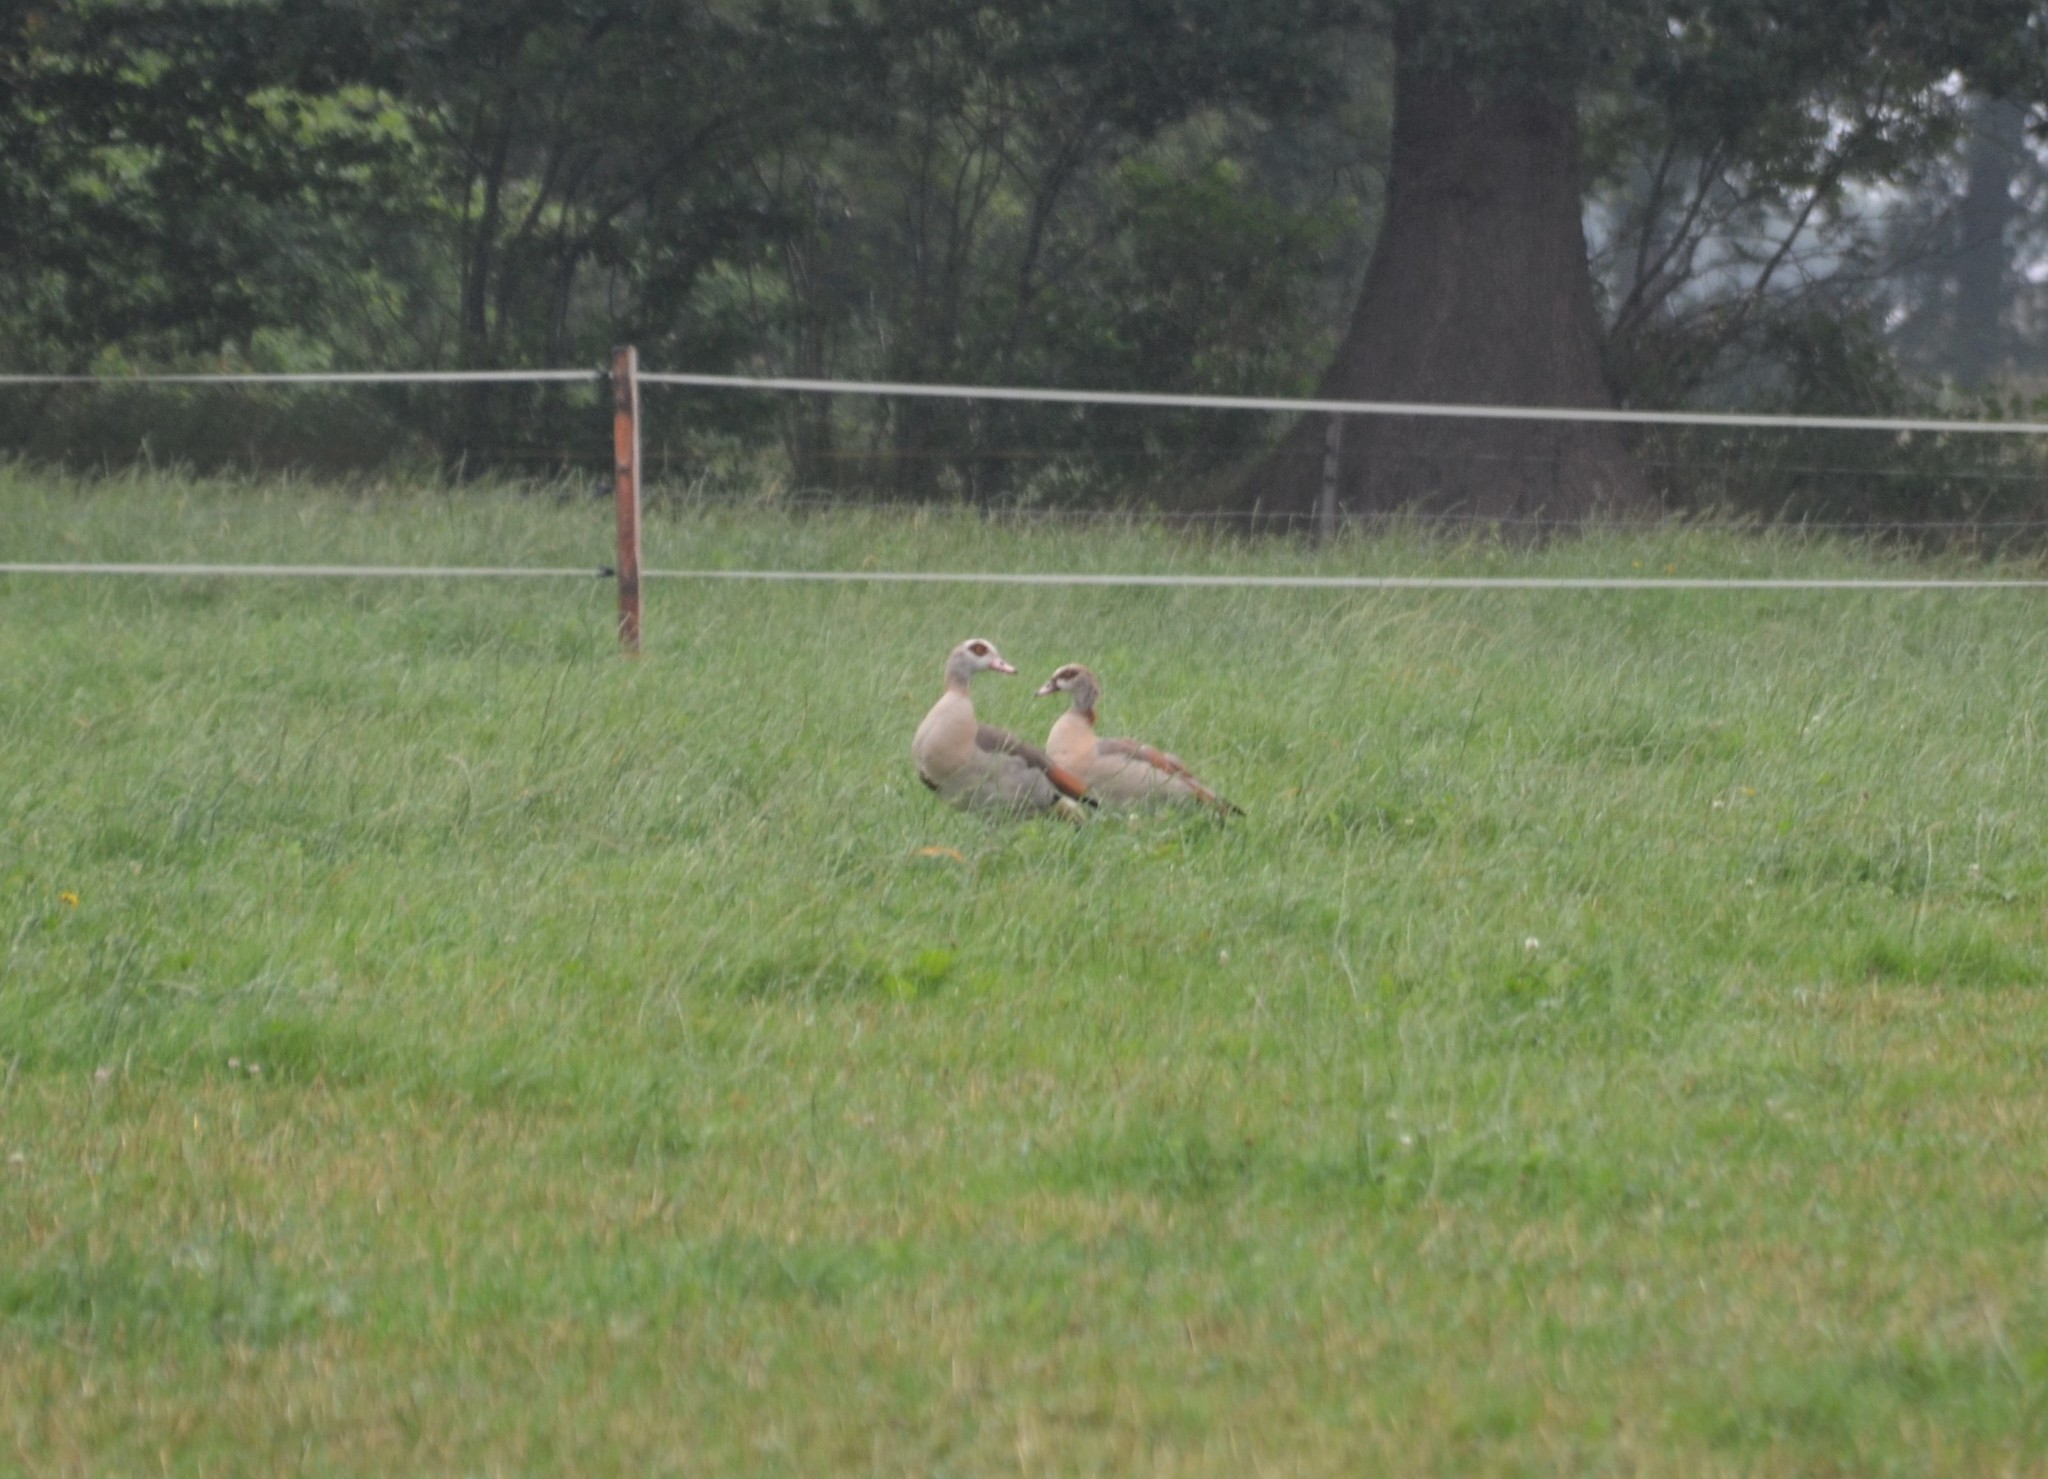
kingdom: Animalia
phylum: Chordata
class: Aves
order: Anseriformes
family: Anatidae
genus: Alopochen
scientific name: Alopochen aegyptiaca
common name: Egyptian goose
